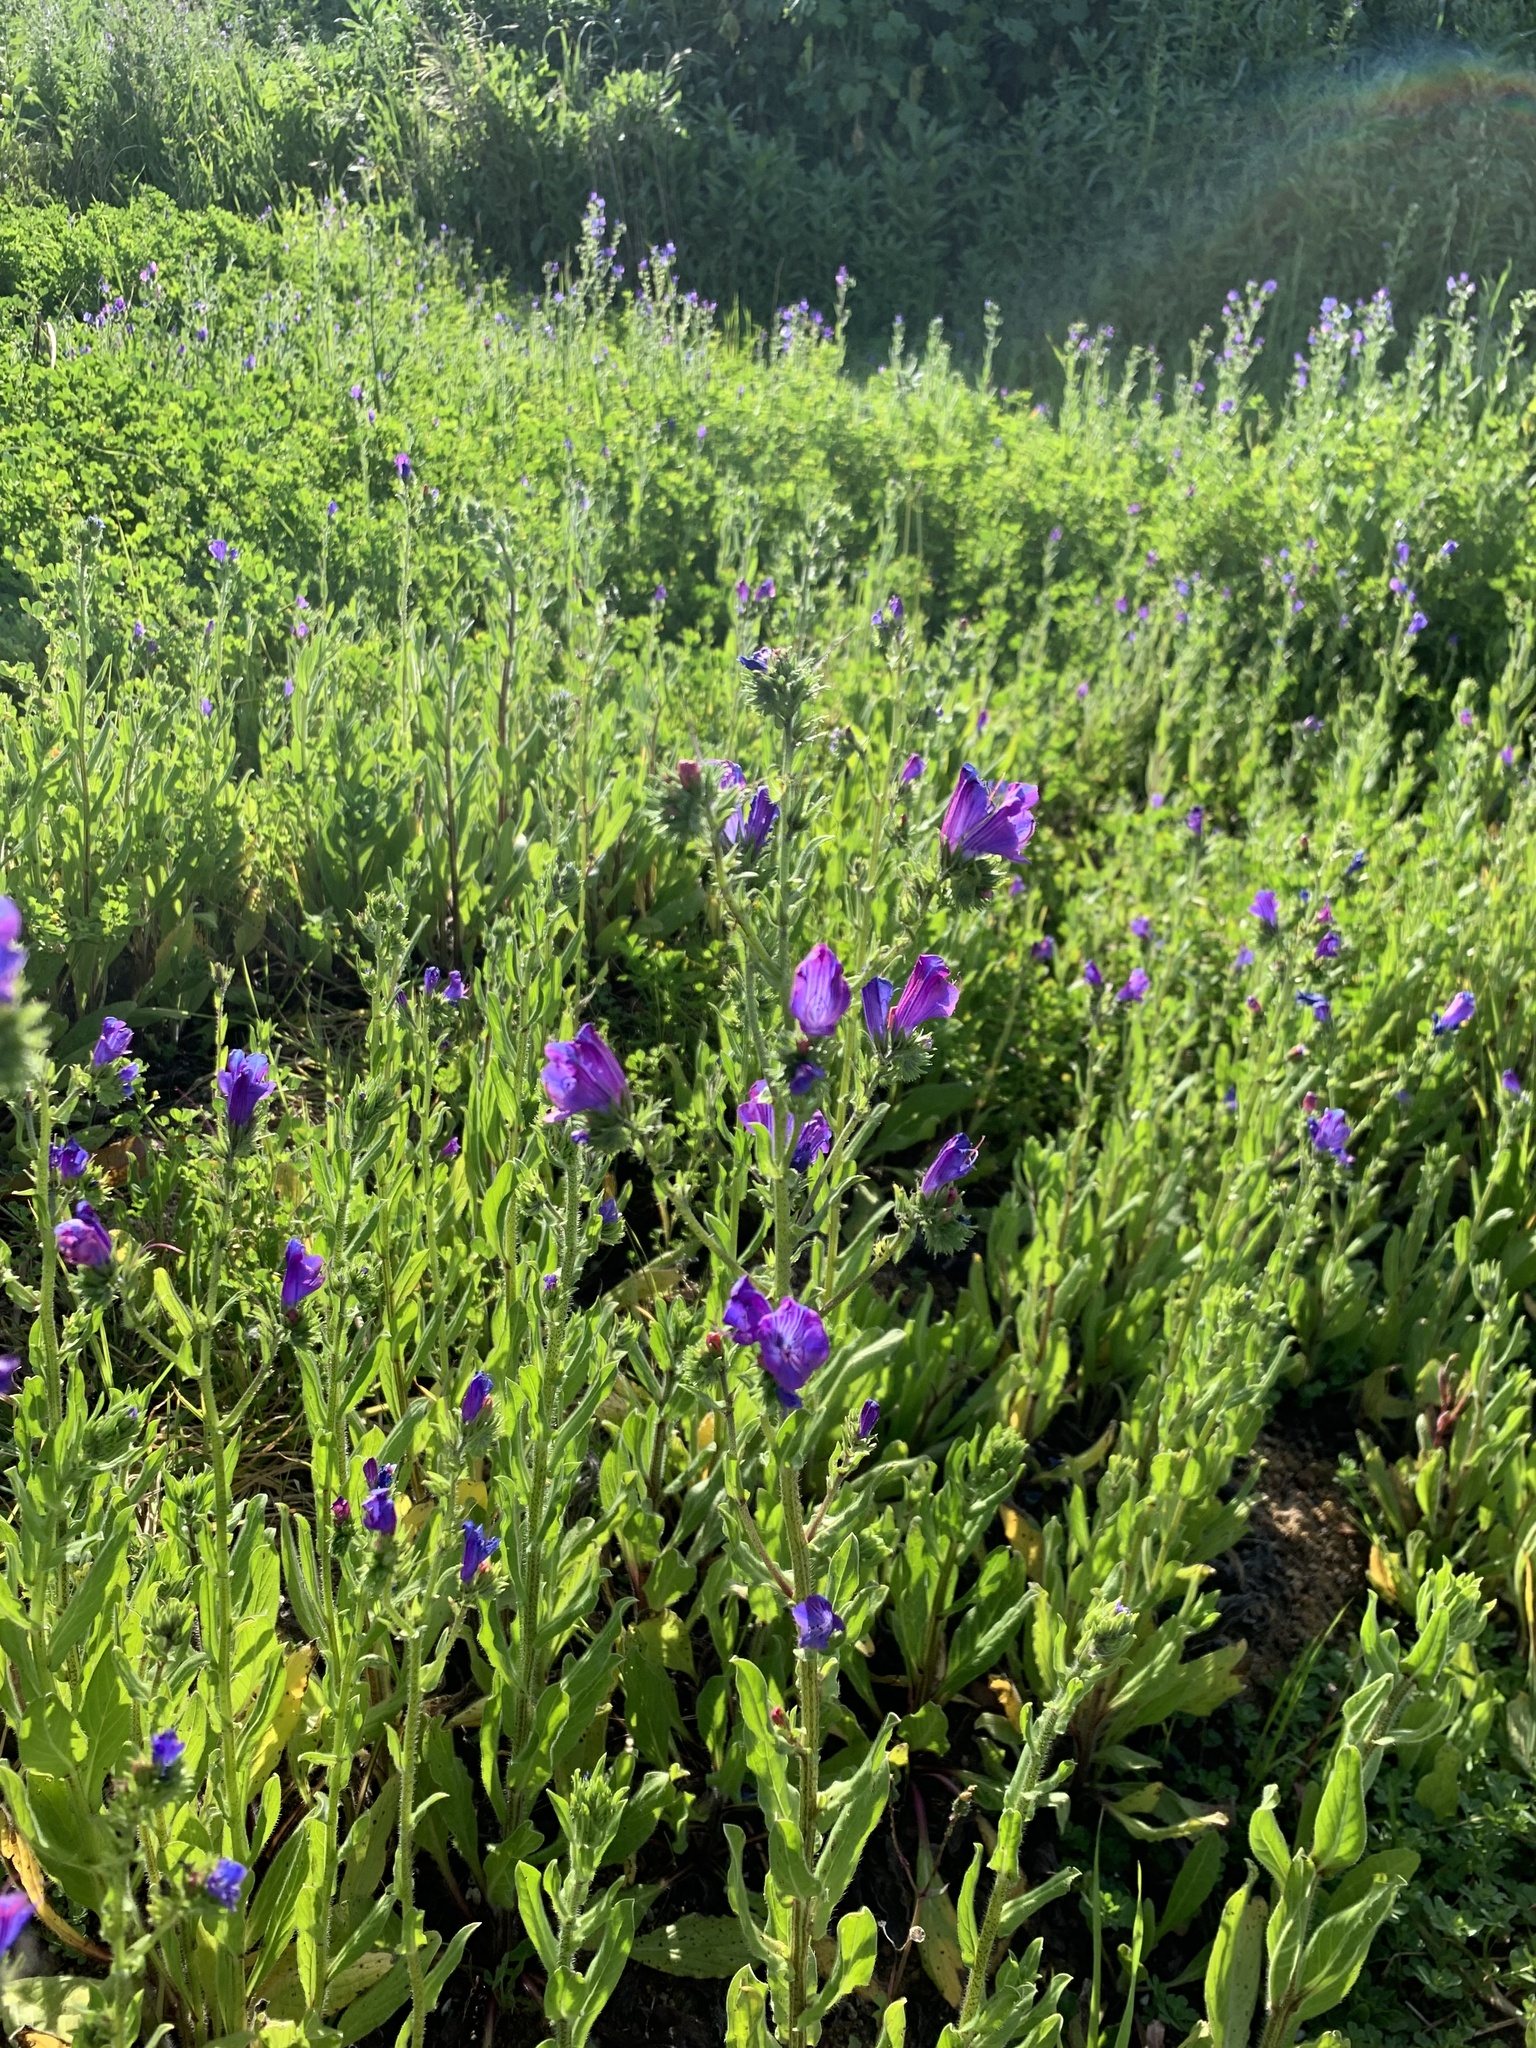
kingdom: Plantae
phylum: Tracheophyta
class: Magnoliopsida
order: Boraginales
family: Boraginaceae
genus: Echium
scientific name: Echium plantagineum
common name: Purple viper's-bugloss
